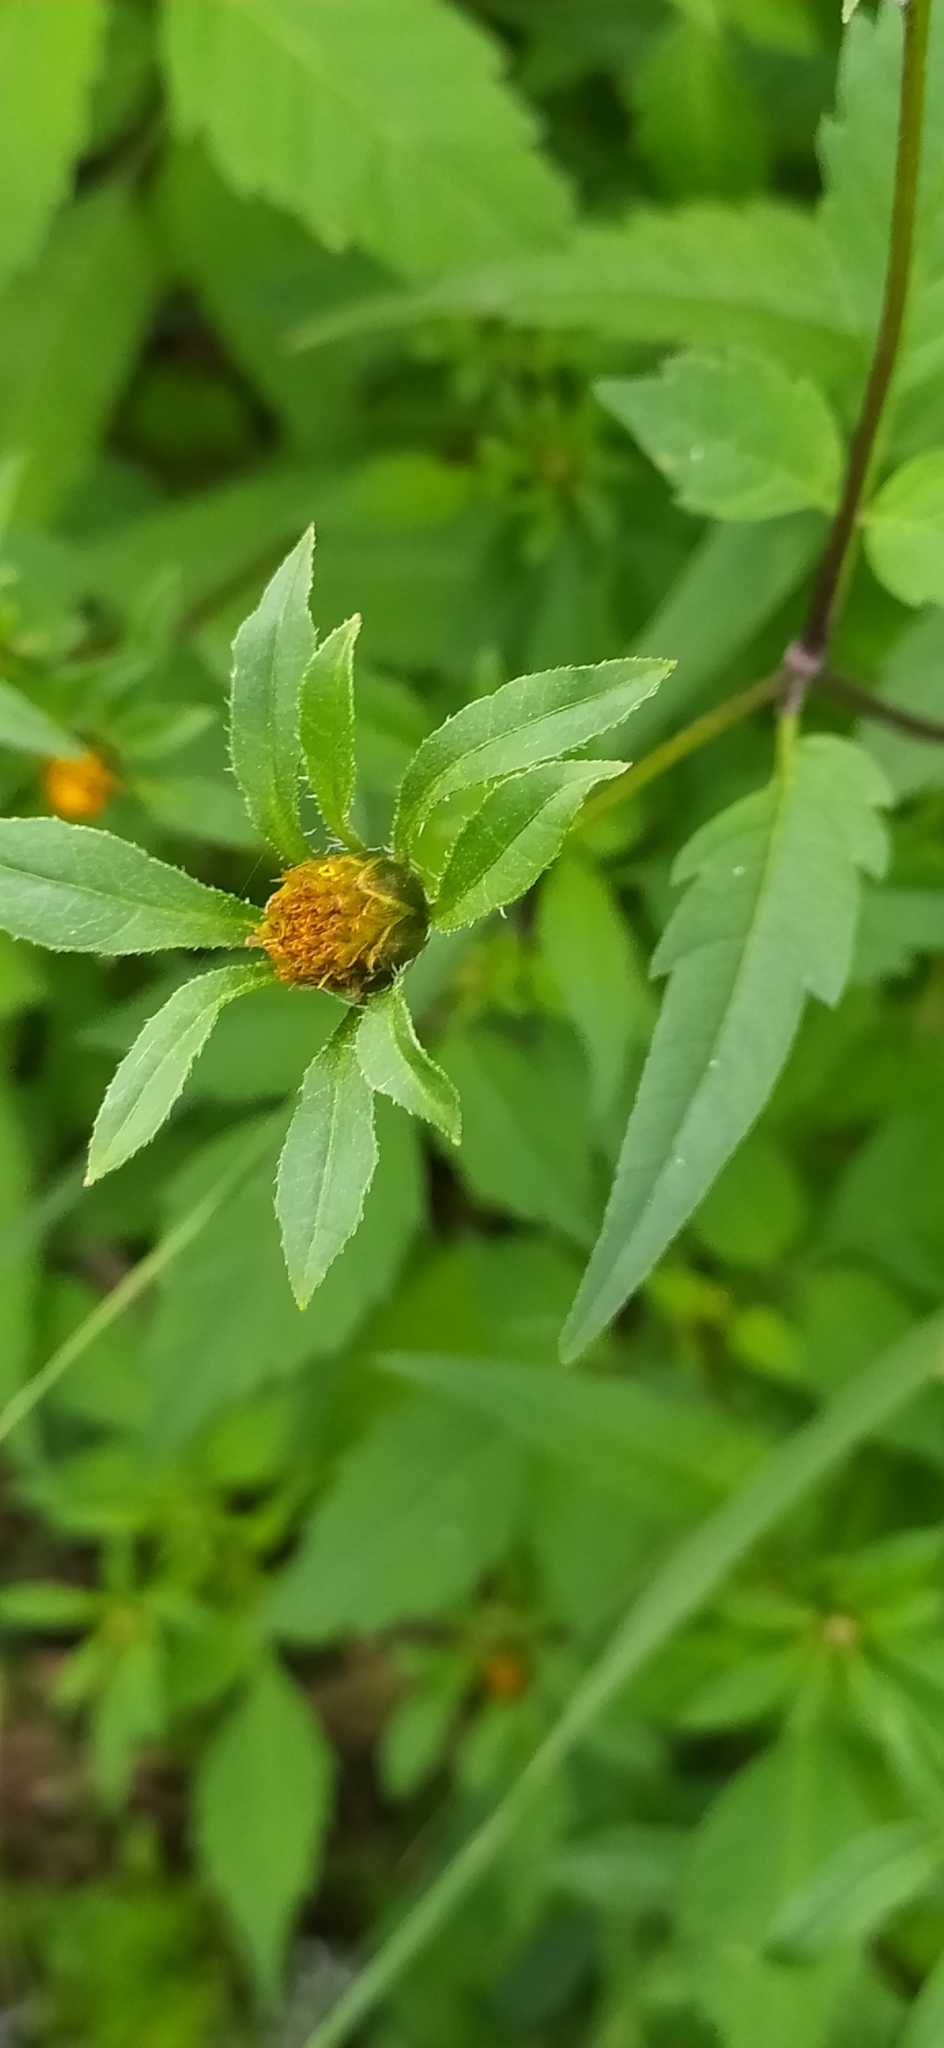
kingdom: Plantae
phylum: Tracheophyta
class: Magnoliopsida
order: Asterales
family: Asteraceae
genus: Bidens
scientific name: Bidens frondosa
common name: Beggarticks
